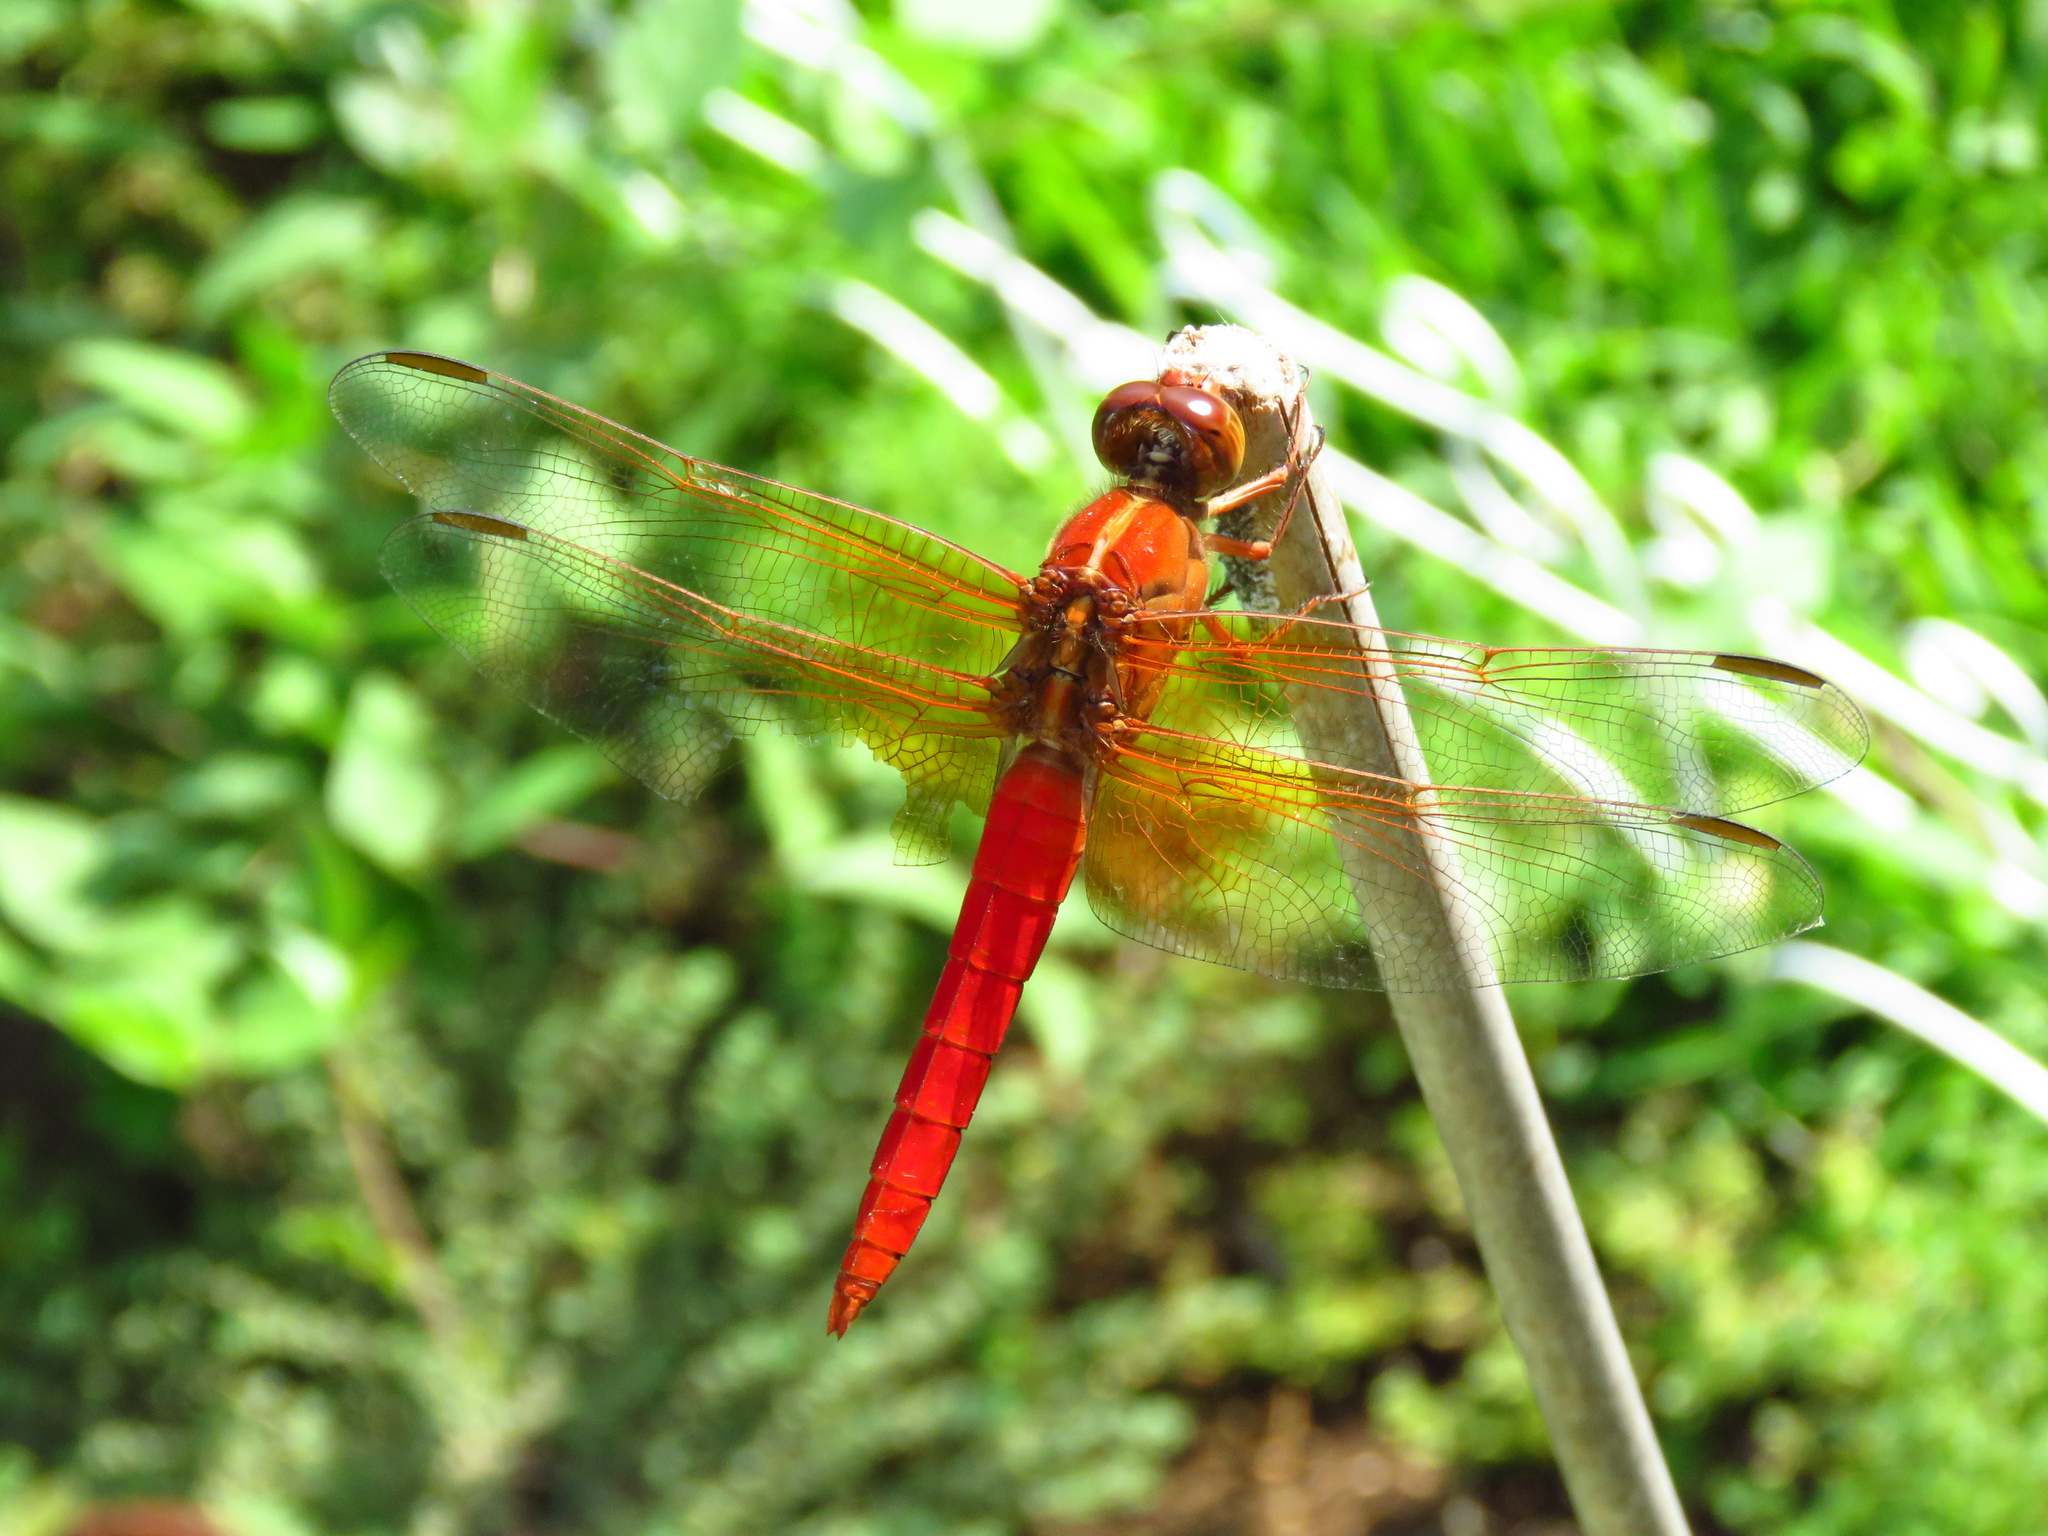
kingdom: Animalia
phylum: Arthropoda
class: Insecta
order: Odonata
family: Libellulidae
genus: Libellula
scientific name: Libellula croceipennis
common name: Neon skimmer
